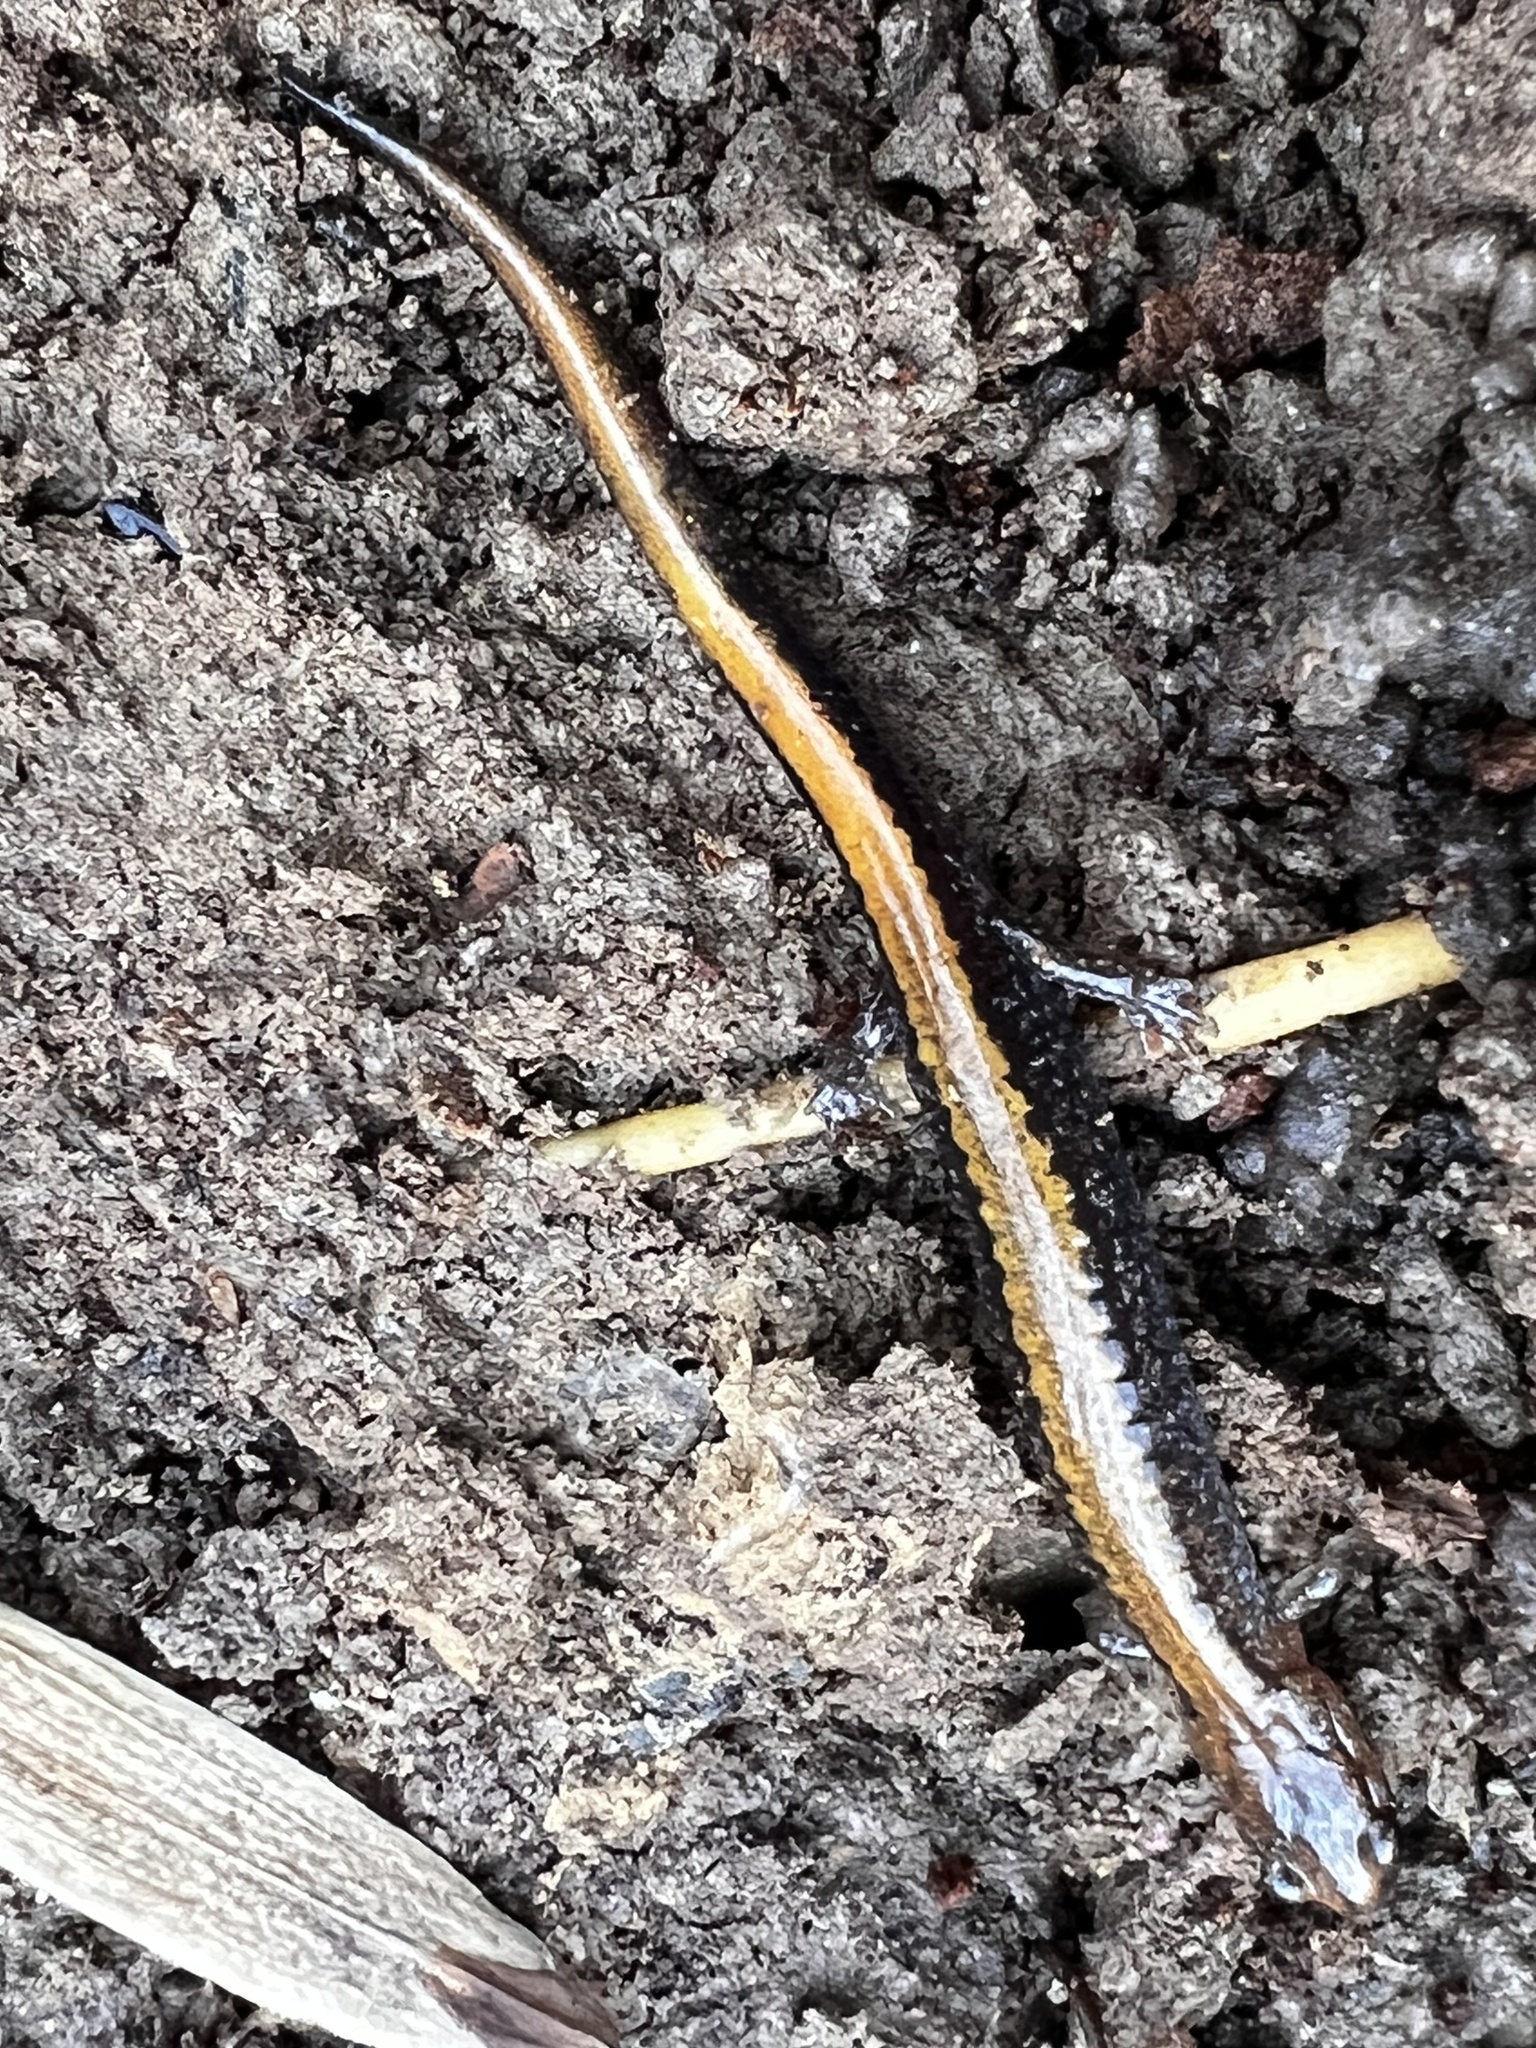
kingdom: Animalia
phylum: Chordata
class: Amphibia
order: Caudata
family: Plethodontidae
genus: Plethodon
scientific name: Plethodon cinereus
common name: Redback salamander
